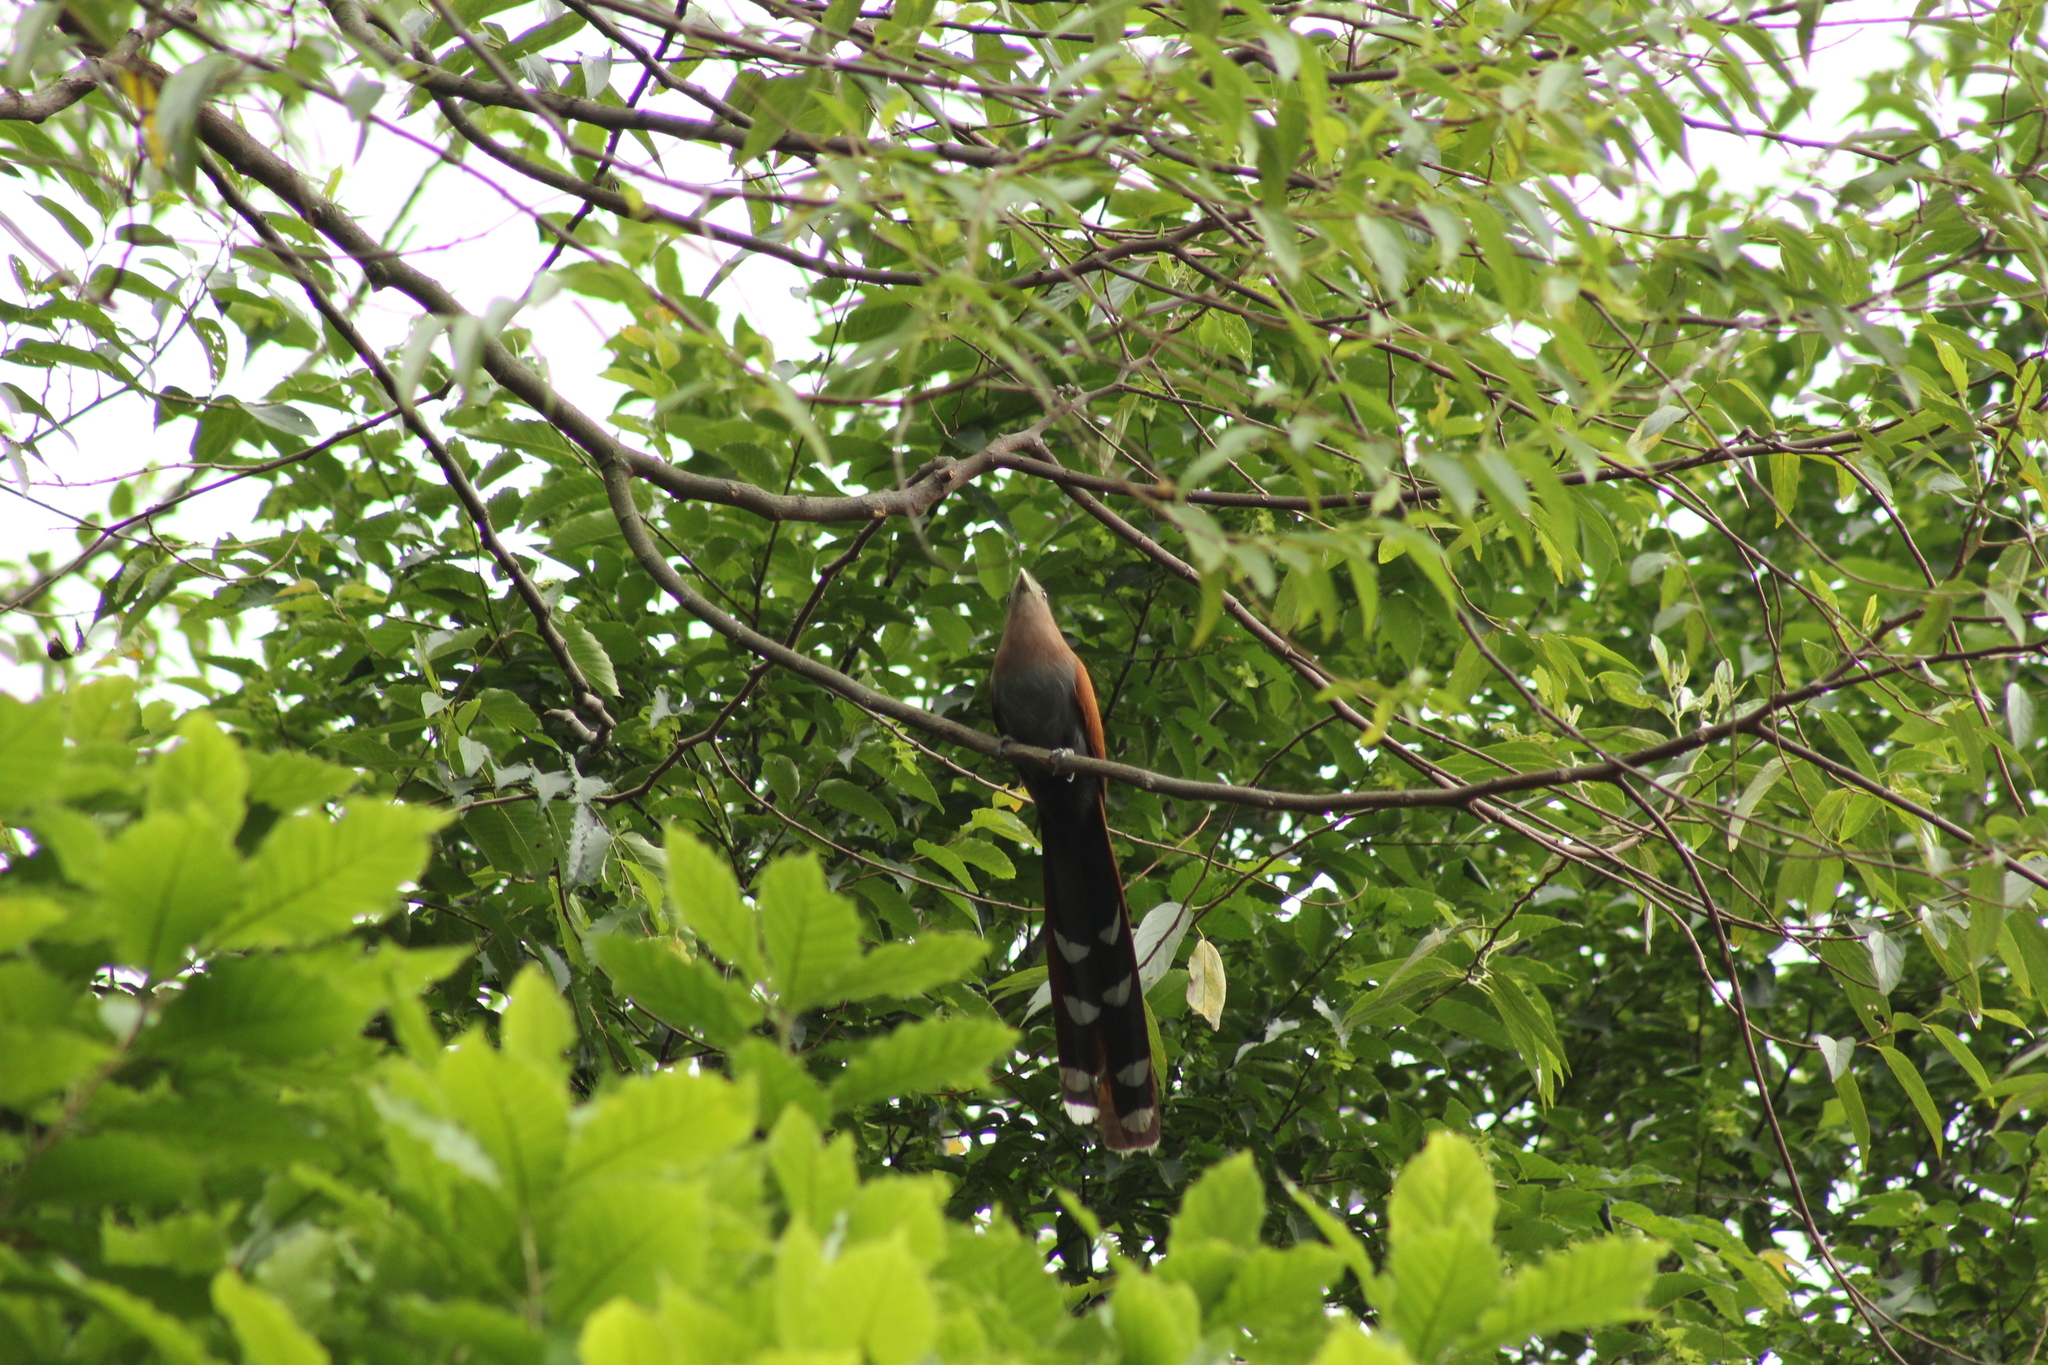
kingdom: Animalia
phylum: Chordata
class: Aves
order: Cuculiformes
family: Cuculidae
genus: Piaya
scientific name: Piaya cayana
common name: Squirrel cuckoo
